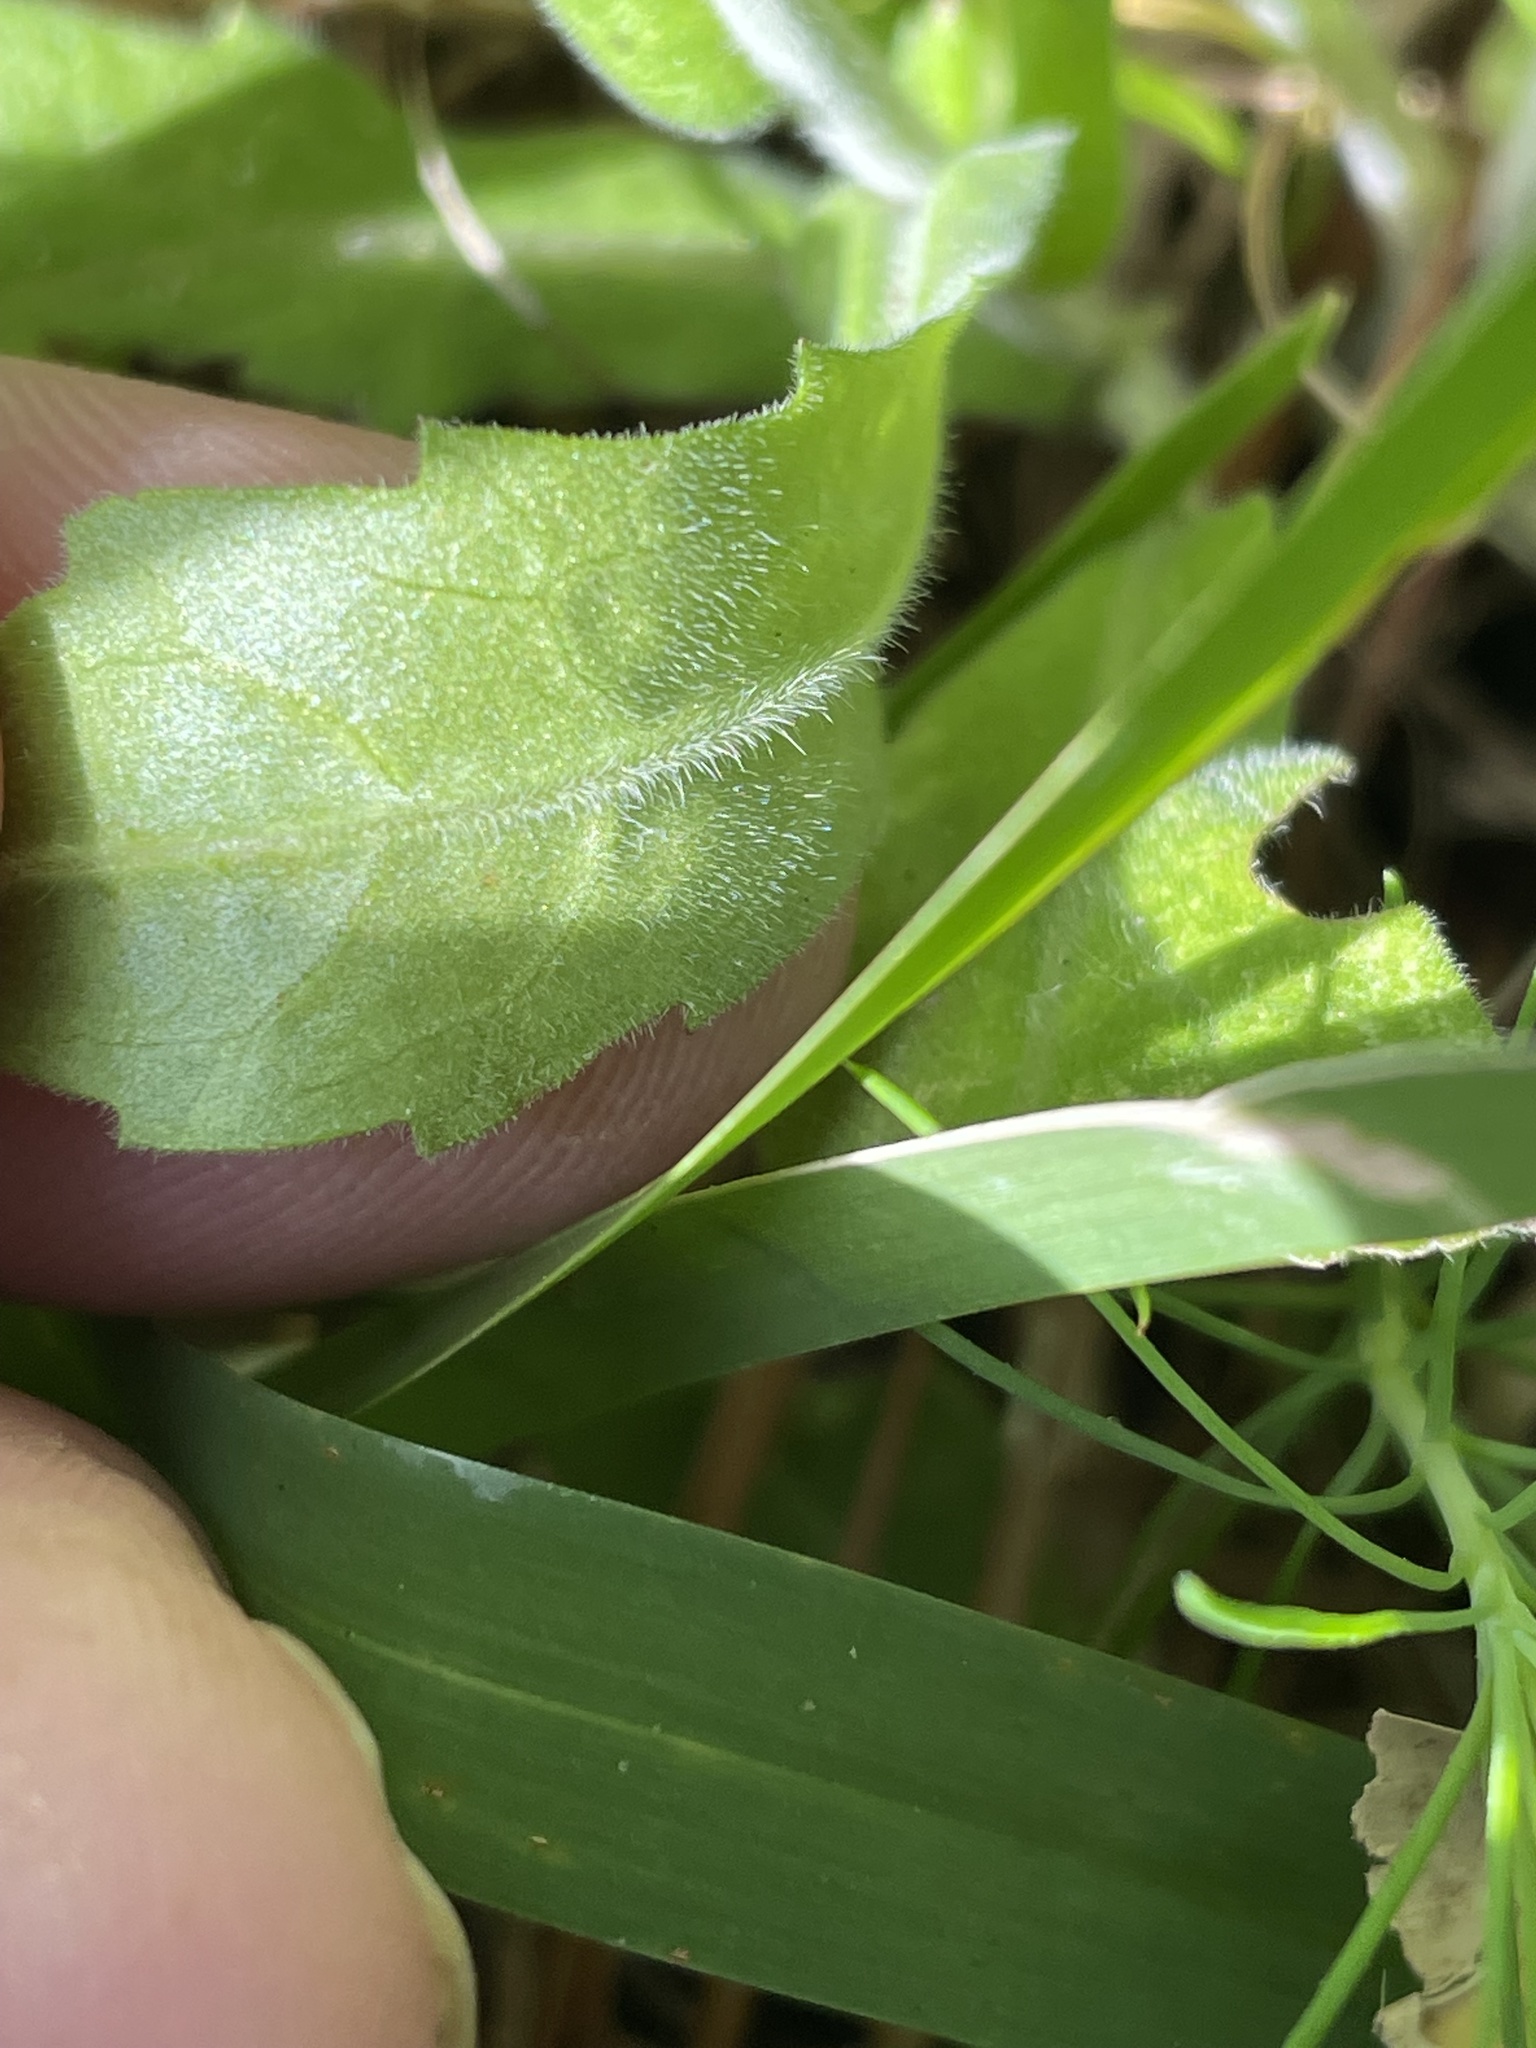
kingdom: Plantae
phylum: Tracheophyta
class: Magnoliopsida
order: Asterales
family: Asteraceae
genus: Erigeron
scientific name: Erigeron philadelphicus
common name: Robin's-plantain
